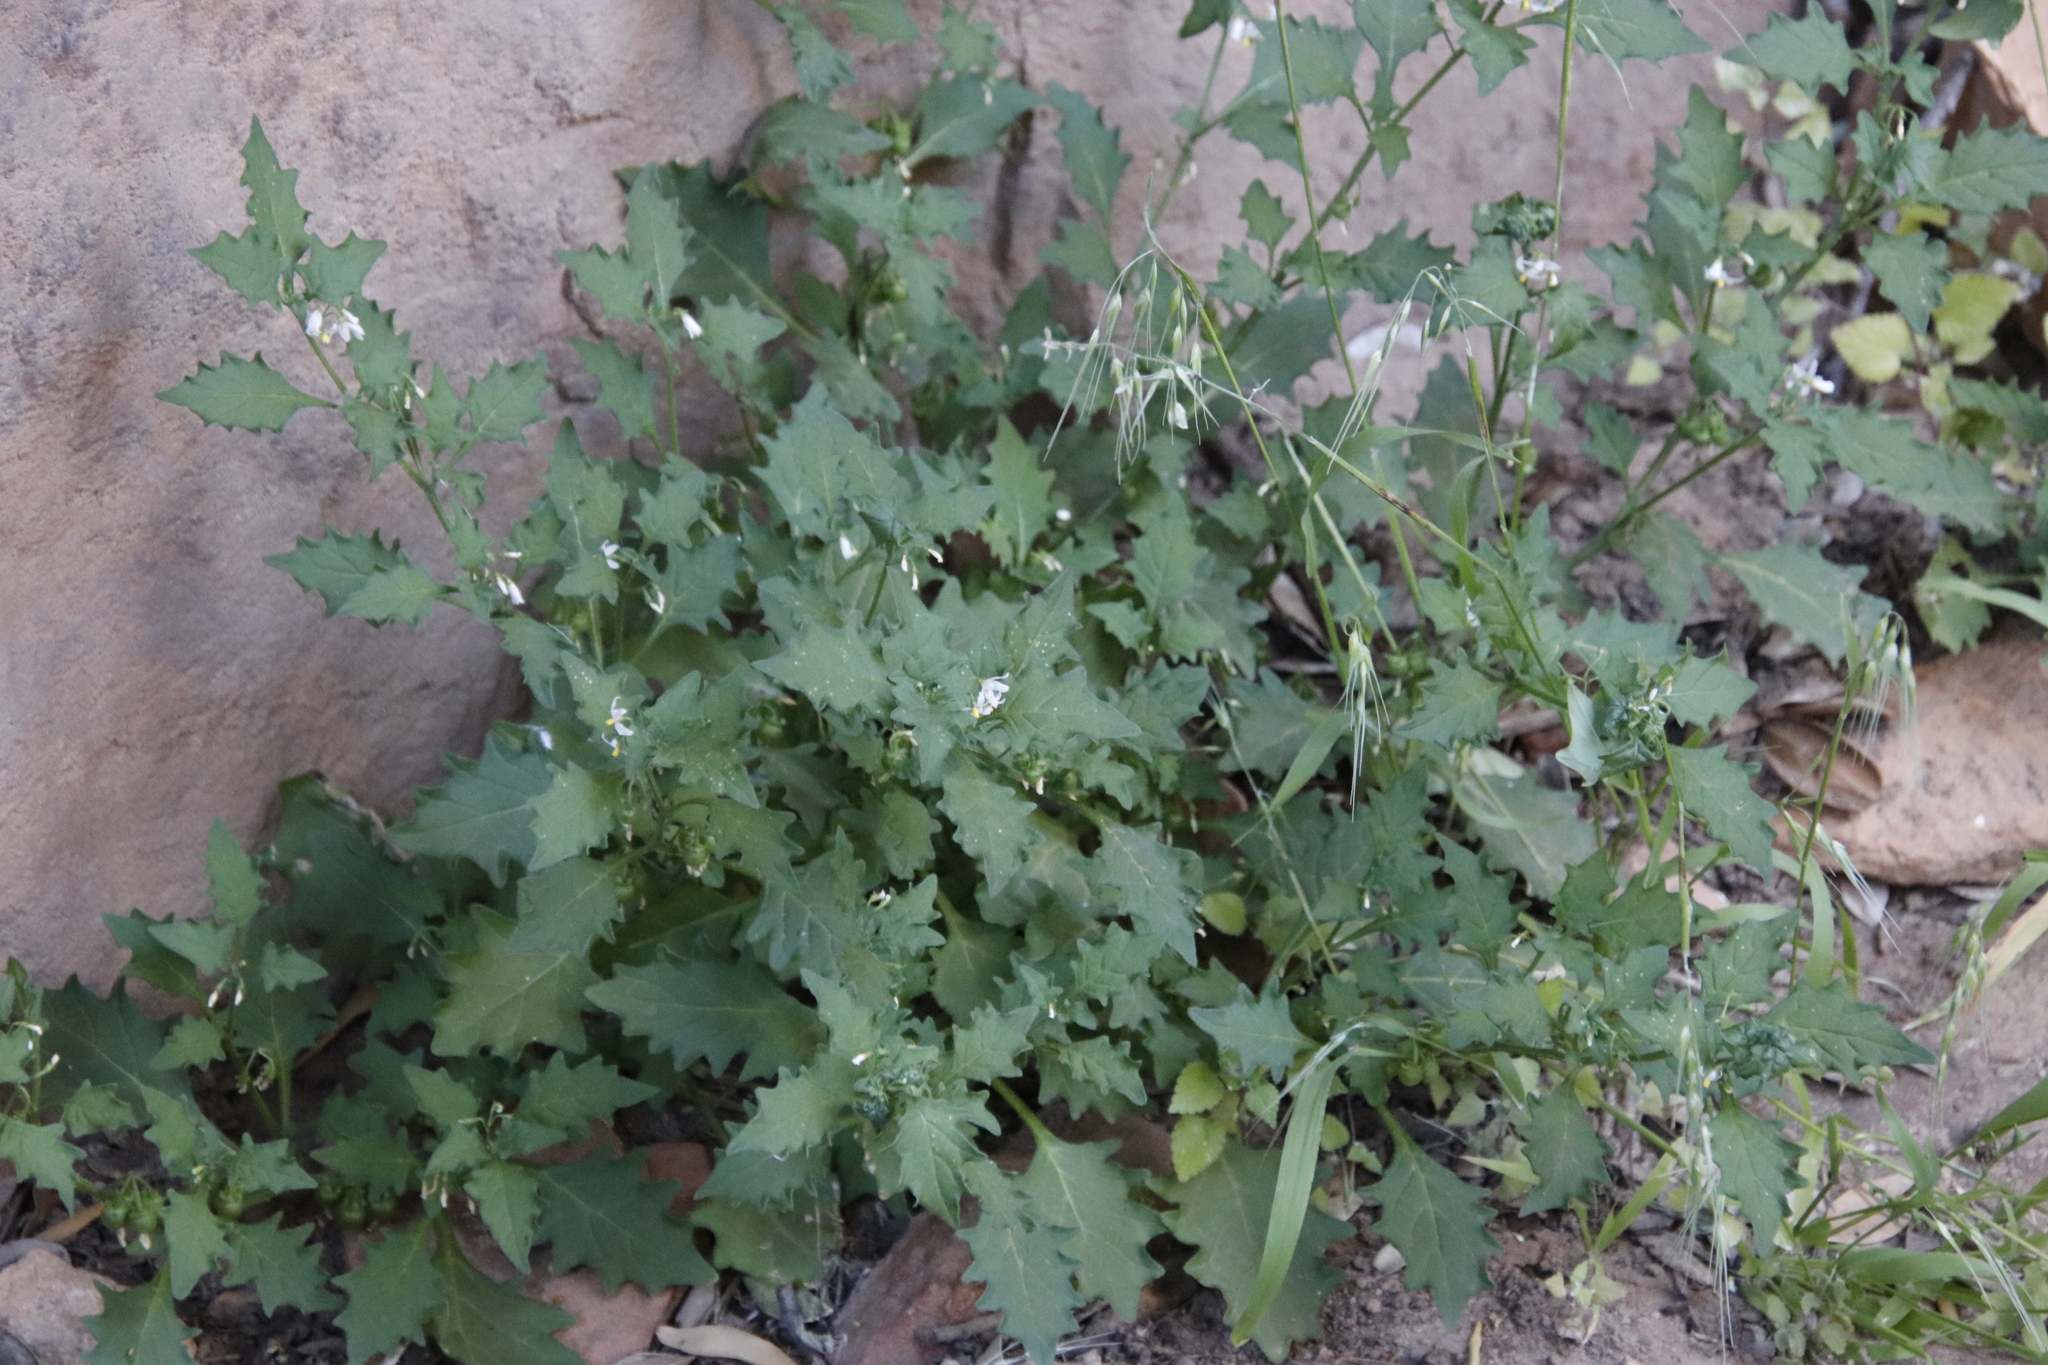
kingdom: Plantae
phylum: Tracheophyta
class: Magnoliopsida
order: Solanales
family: Solanaceae
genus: Solanum
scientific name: Solanum retroflexum
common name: Wonderberry
